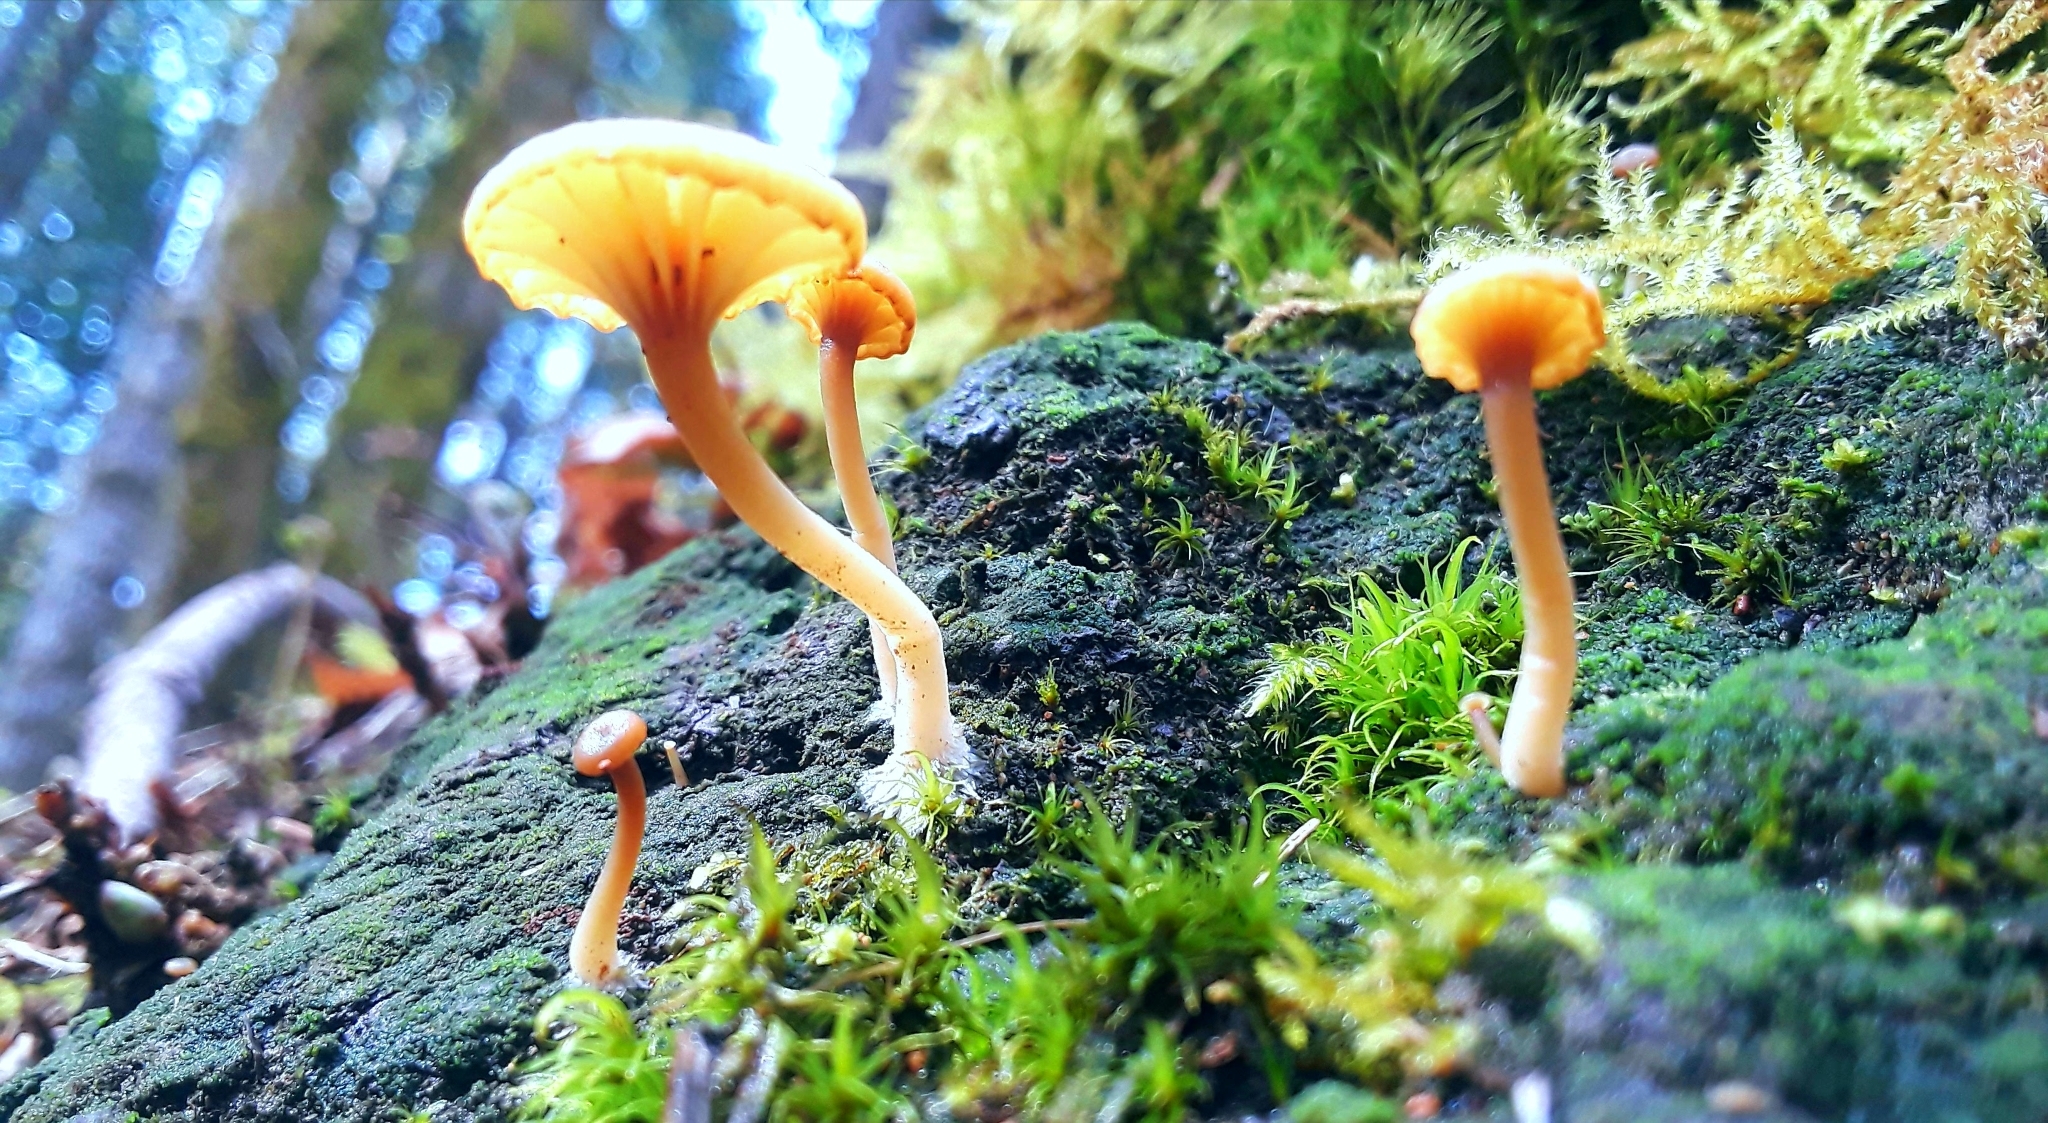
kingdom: Fungi
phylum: Basidiomycota
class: Agaricomycetes
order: Agaricales
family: Hygrophoraceae
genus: Lichenomphalia
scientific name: Lichenomphalia
